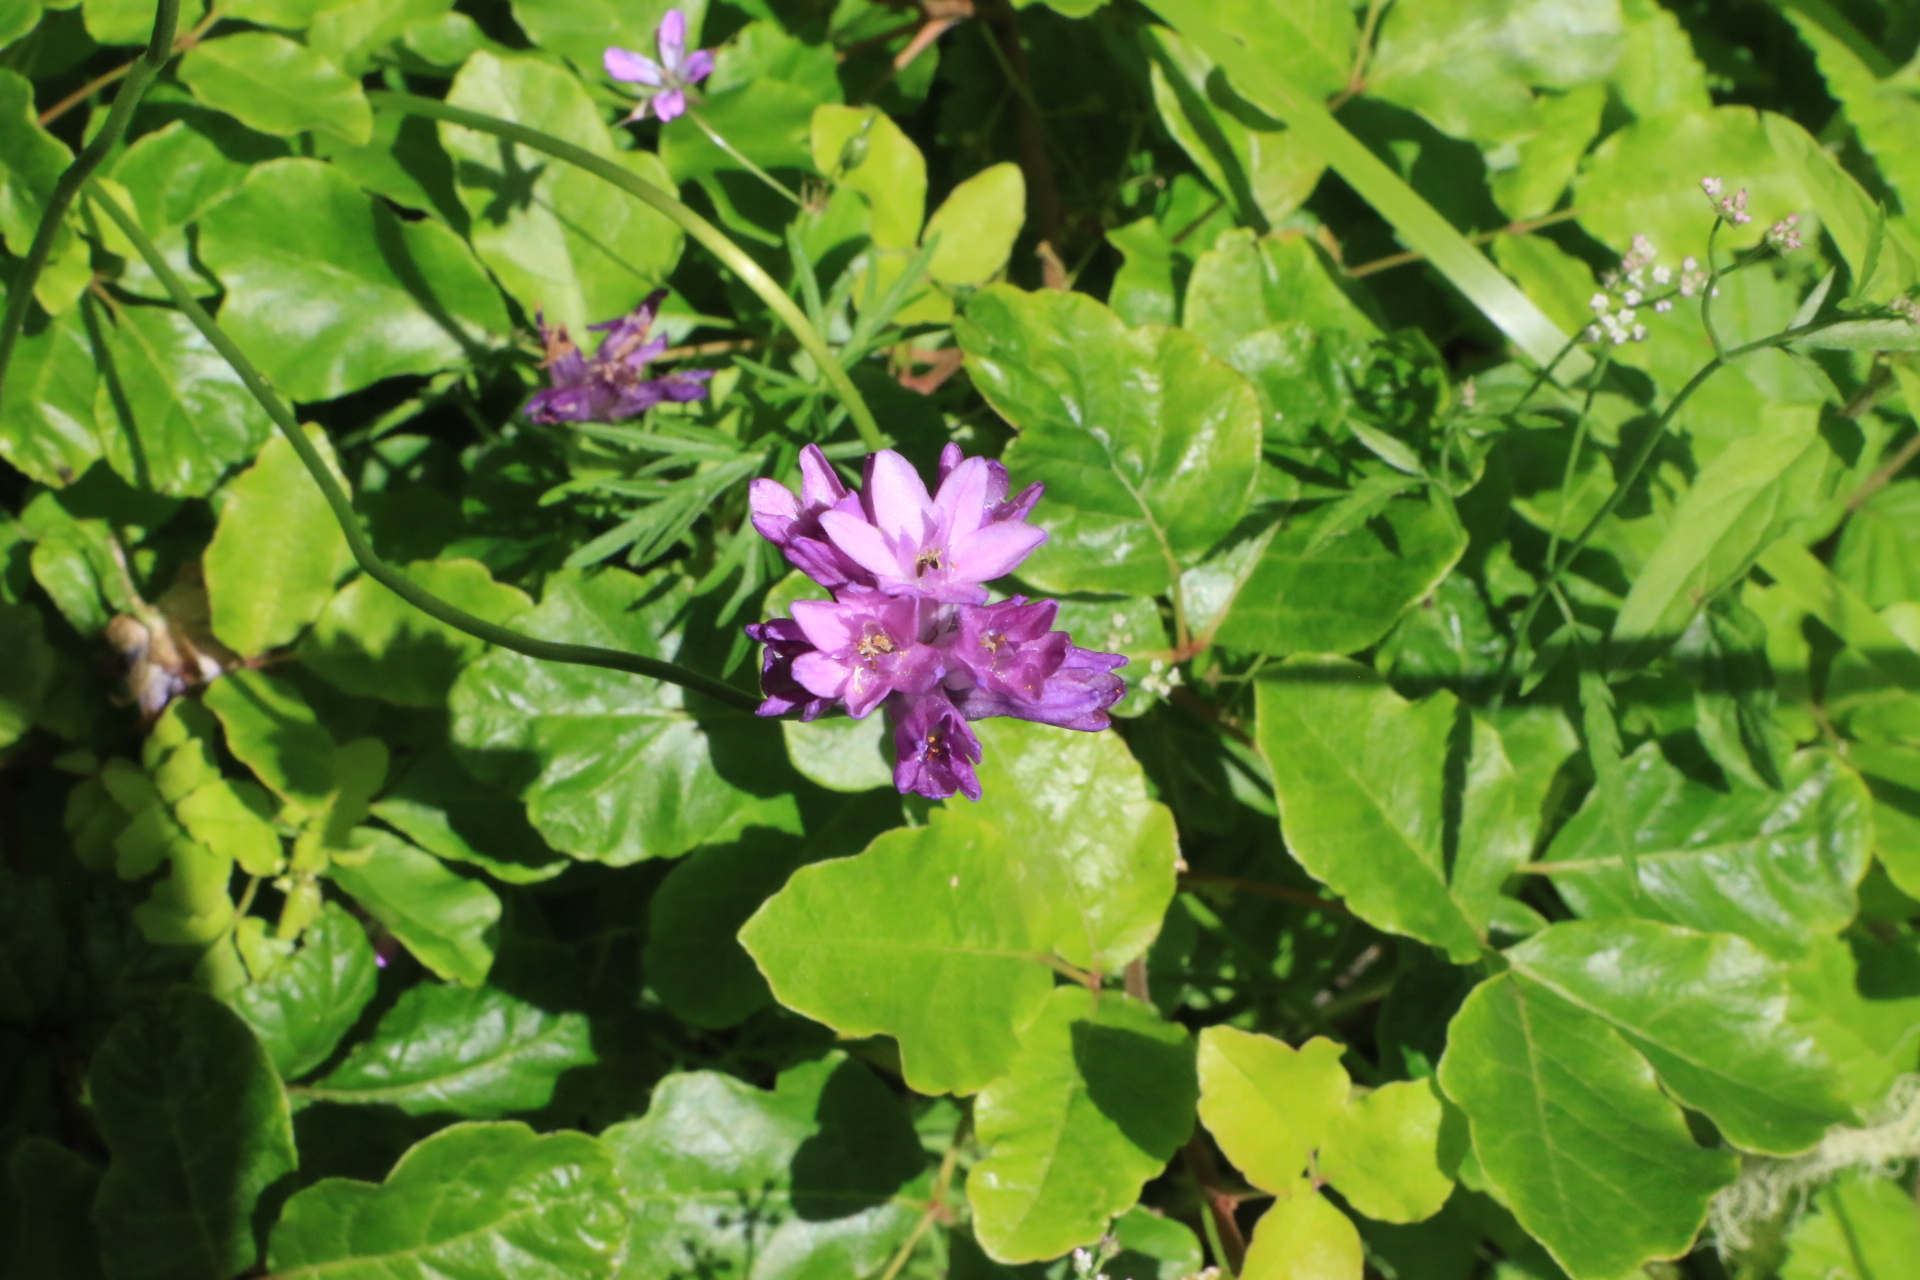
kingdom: Plantae
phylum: Tracheophyta
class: Liliopsida
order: Asparagales
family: Asparagaceae
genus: Dichelostemma
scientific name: Dichelostemma congestum
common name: Fork-tooth ookow
